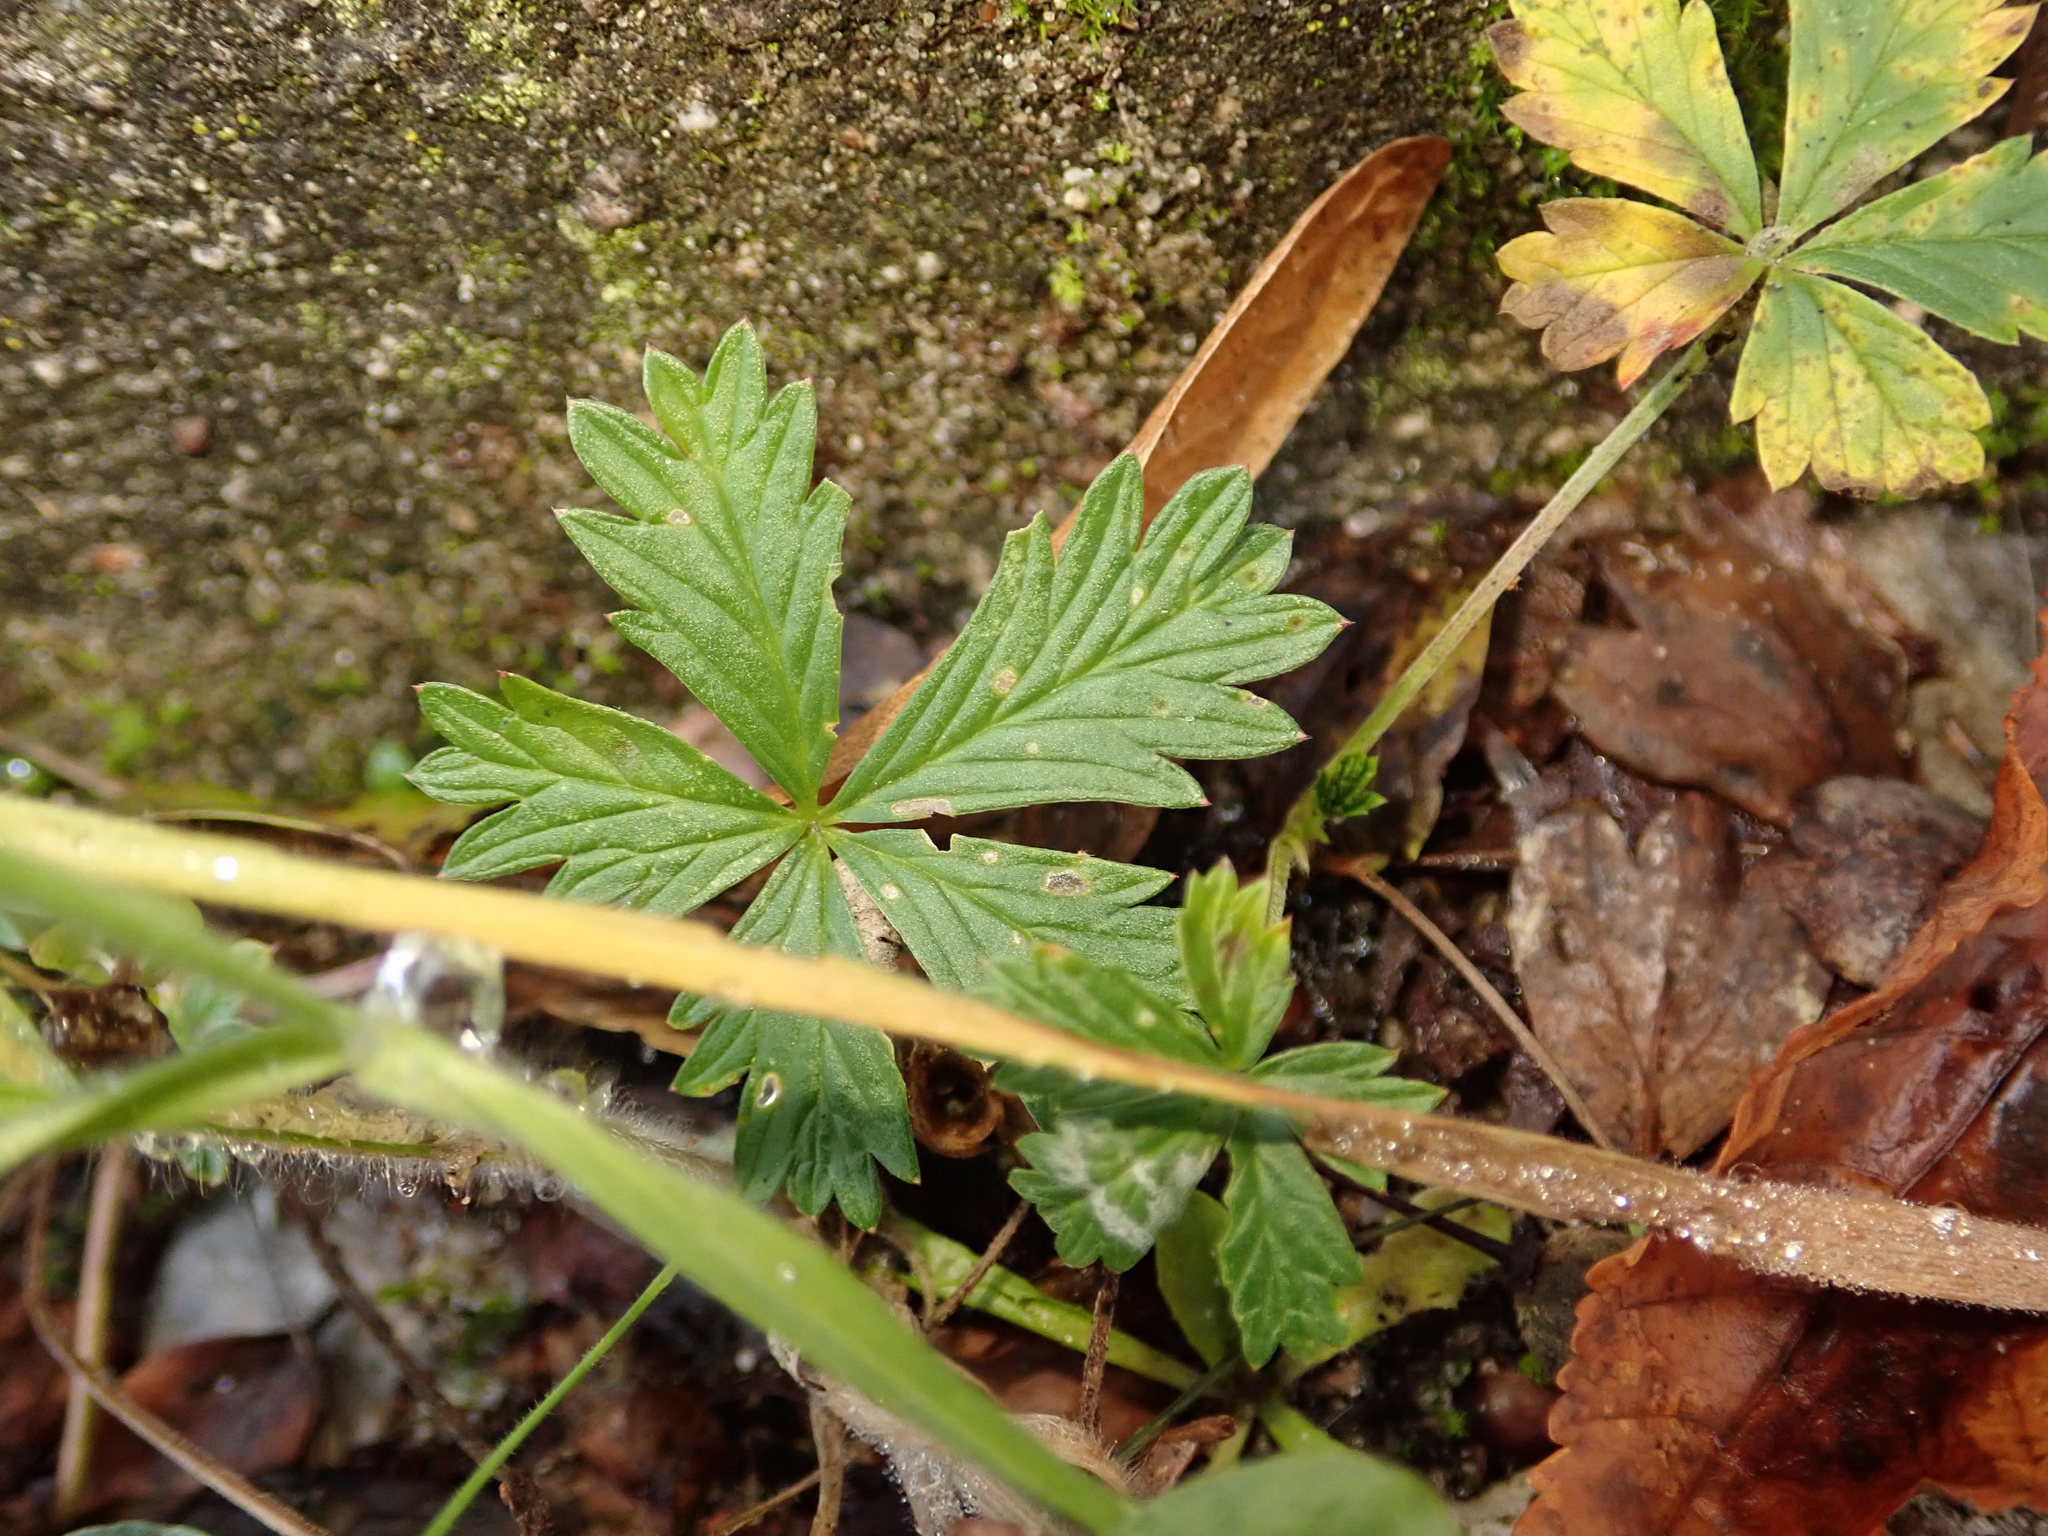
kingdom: Plantae
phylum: Tracheophyta
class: Magnoliopsida
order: Rosales
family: Rosaceae
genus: Potentilla
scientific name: Potentilla argentea
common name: Hoary cinquefoil
